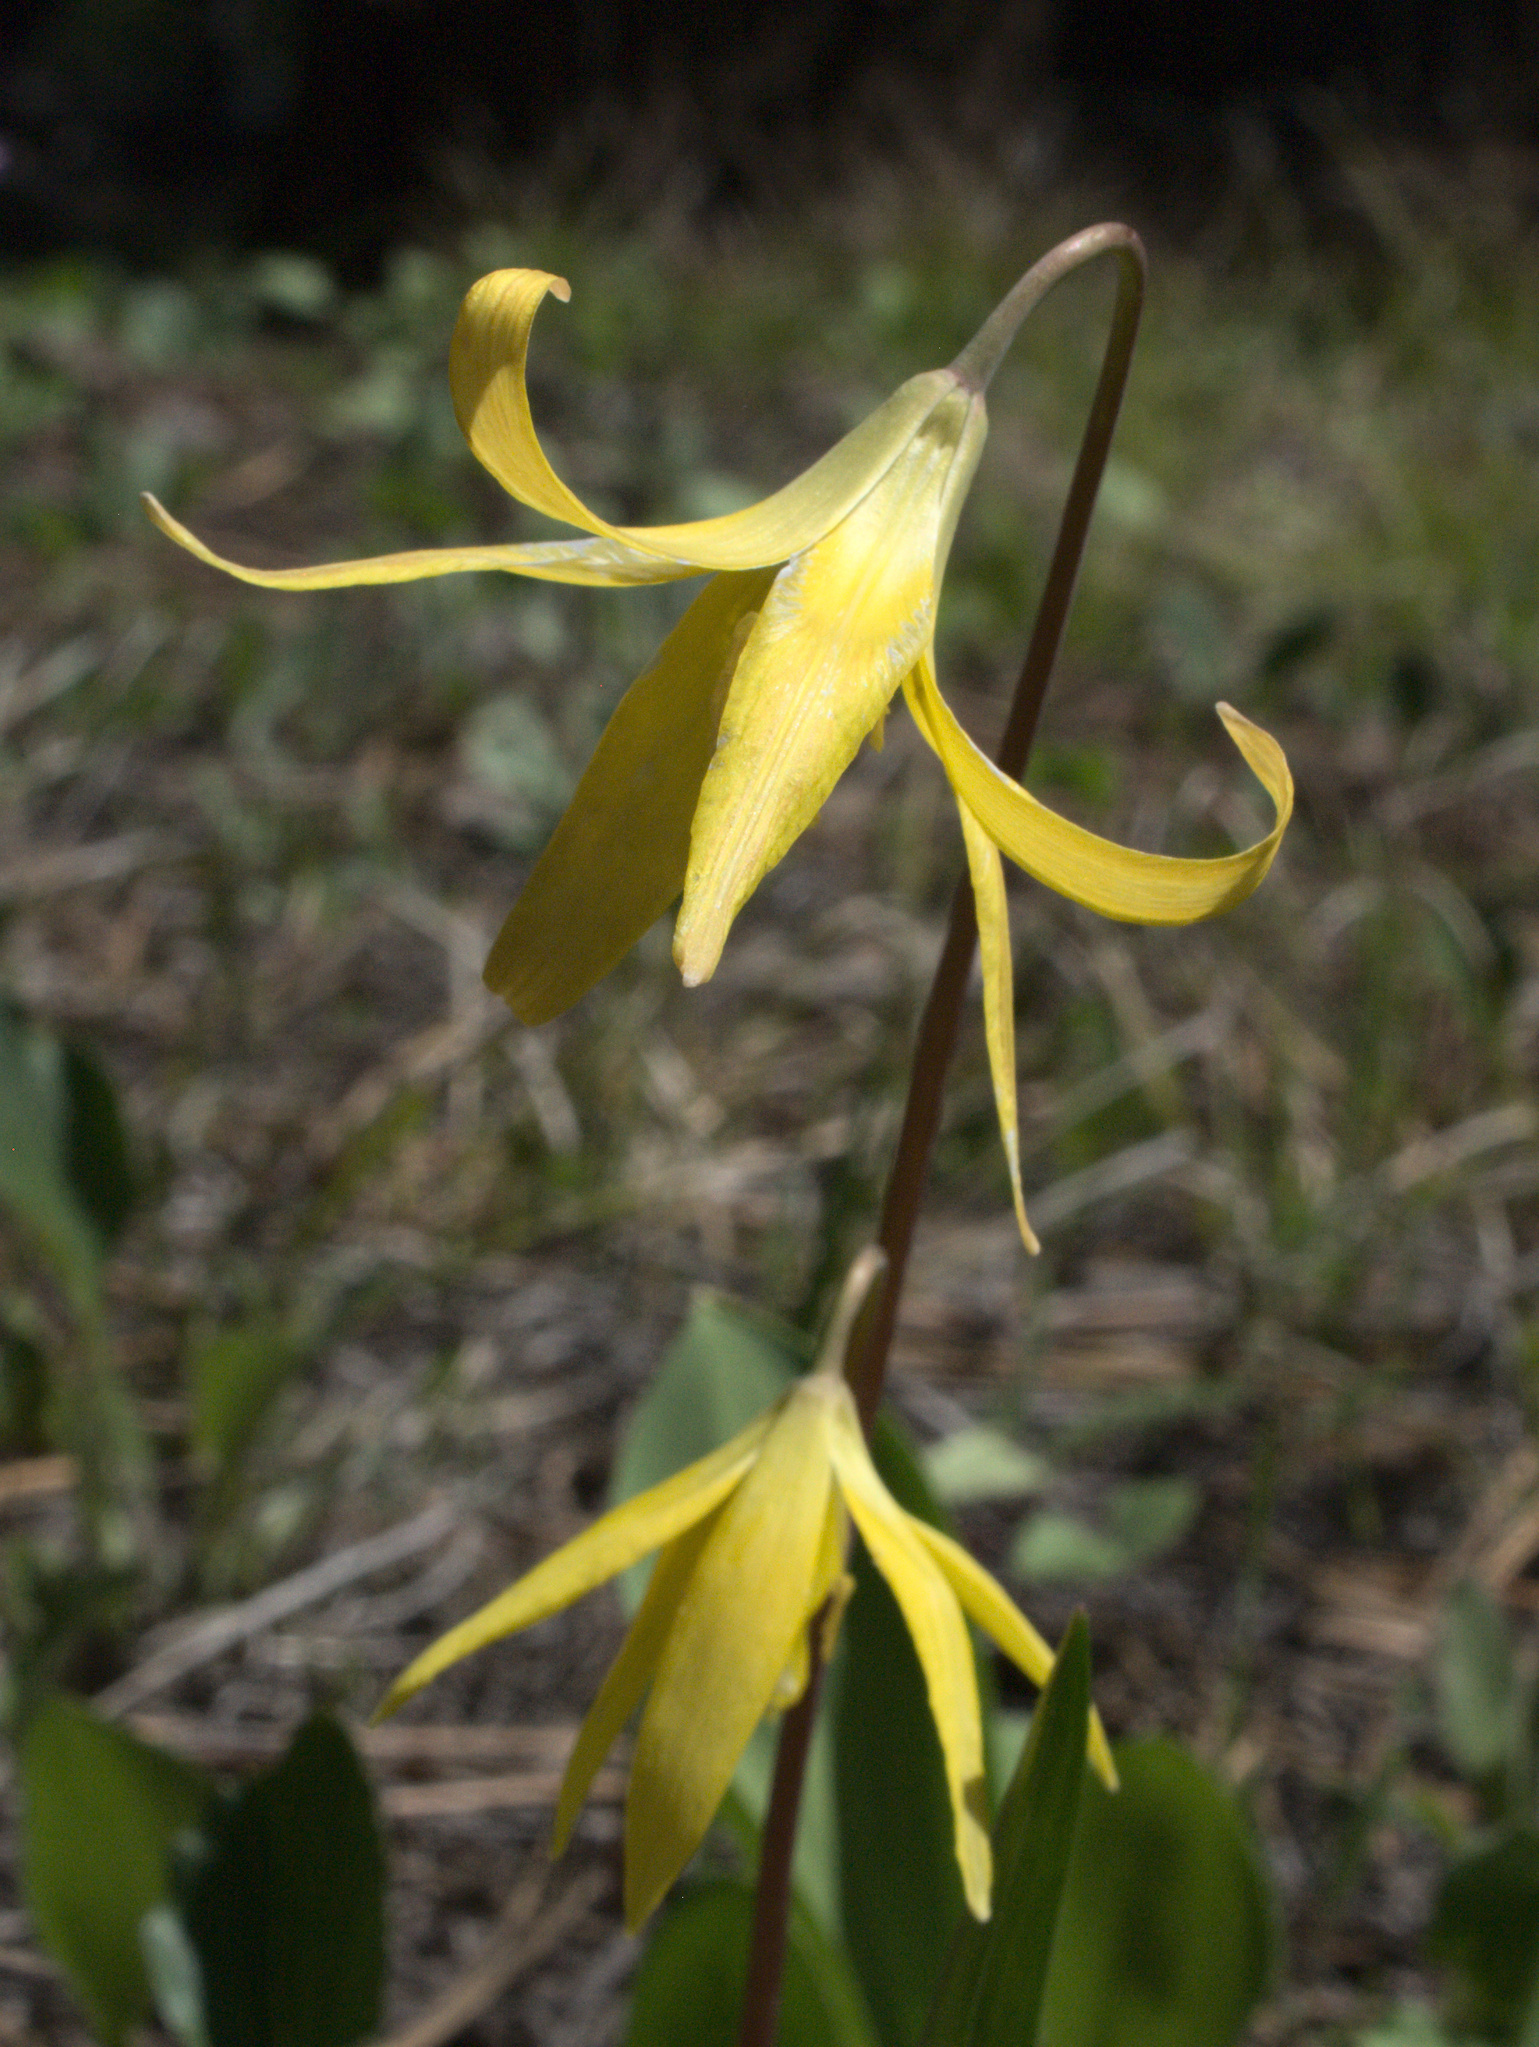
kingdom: Plantae
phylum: Tracheophyta
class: Liliopsida
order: Liliales
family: Liliaceae
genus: Erythronium
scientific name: Erythronium grandiflorum
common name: Avalanche-lily
